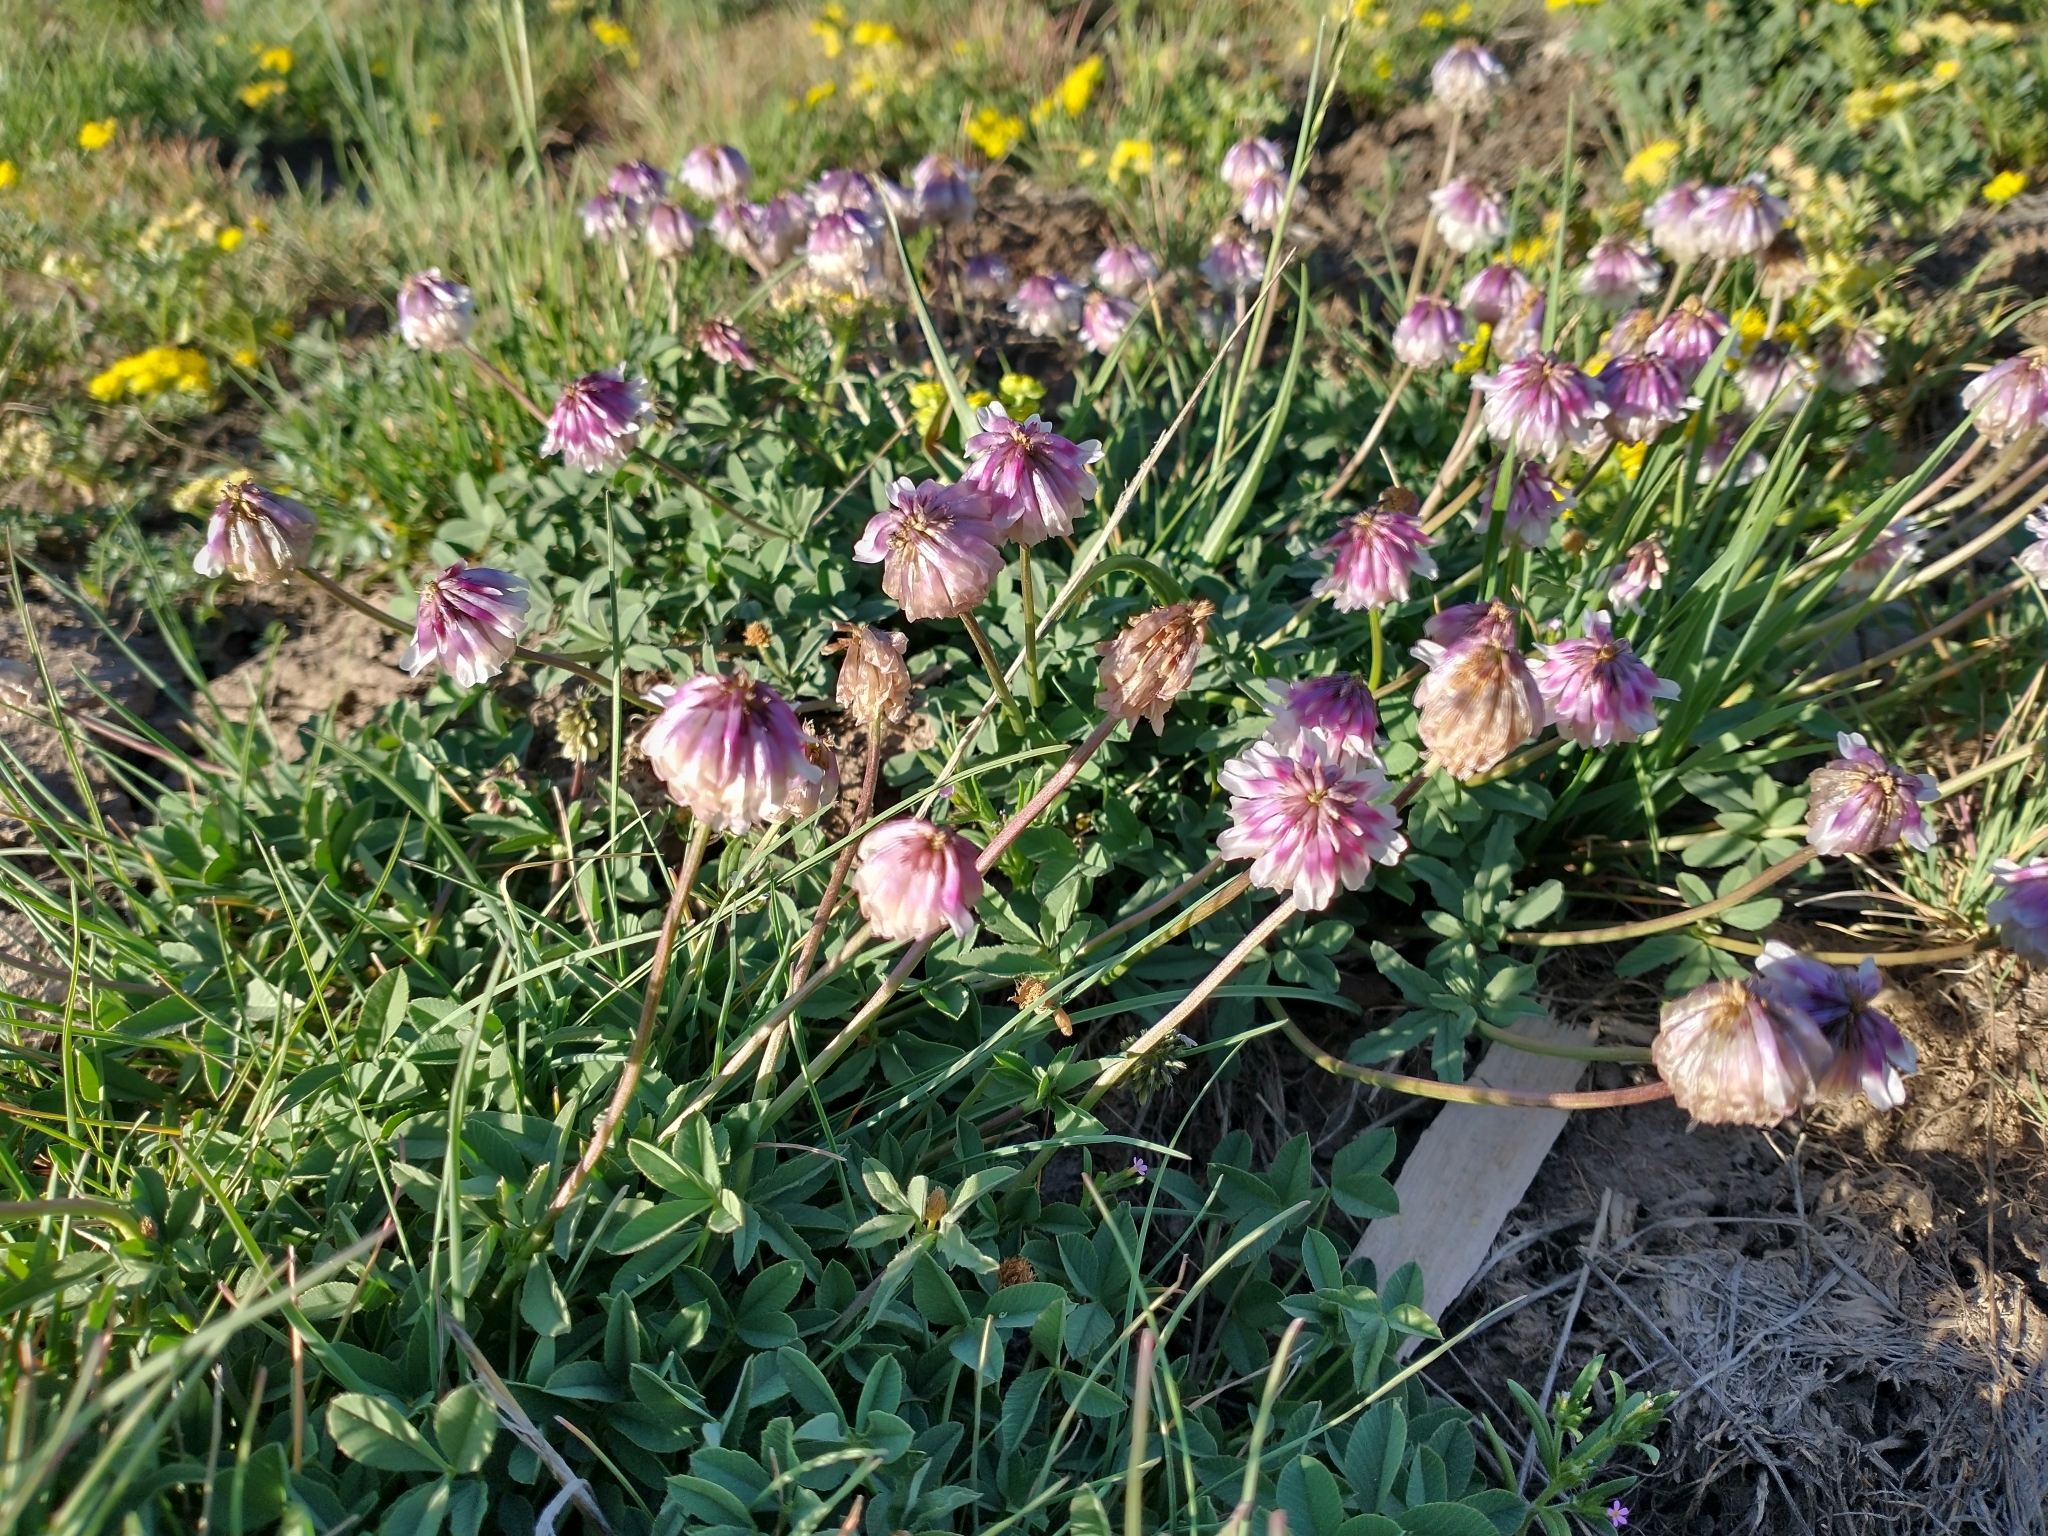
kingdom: Plantae
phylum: Tracheophyta
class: Magnoliopsida
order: Fabales
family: Fabaceae
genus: Trifolium
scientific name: Trifolium productum
